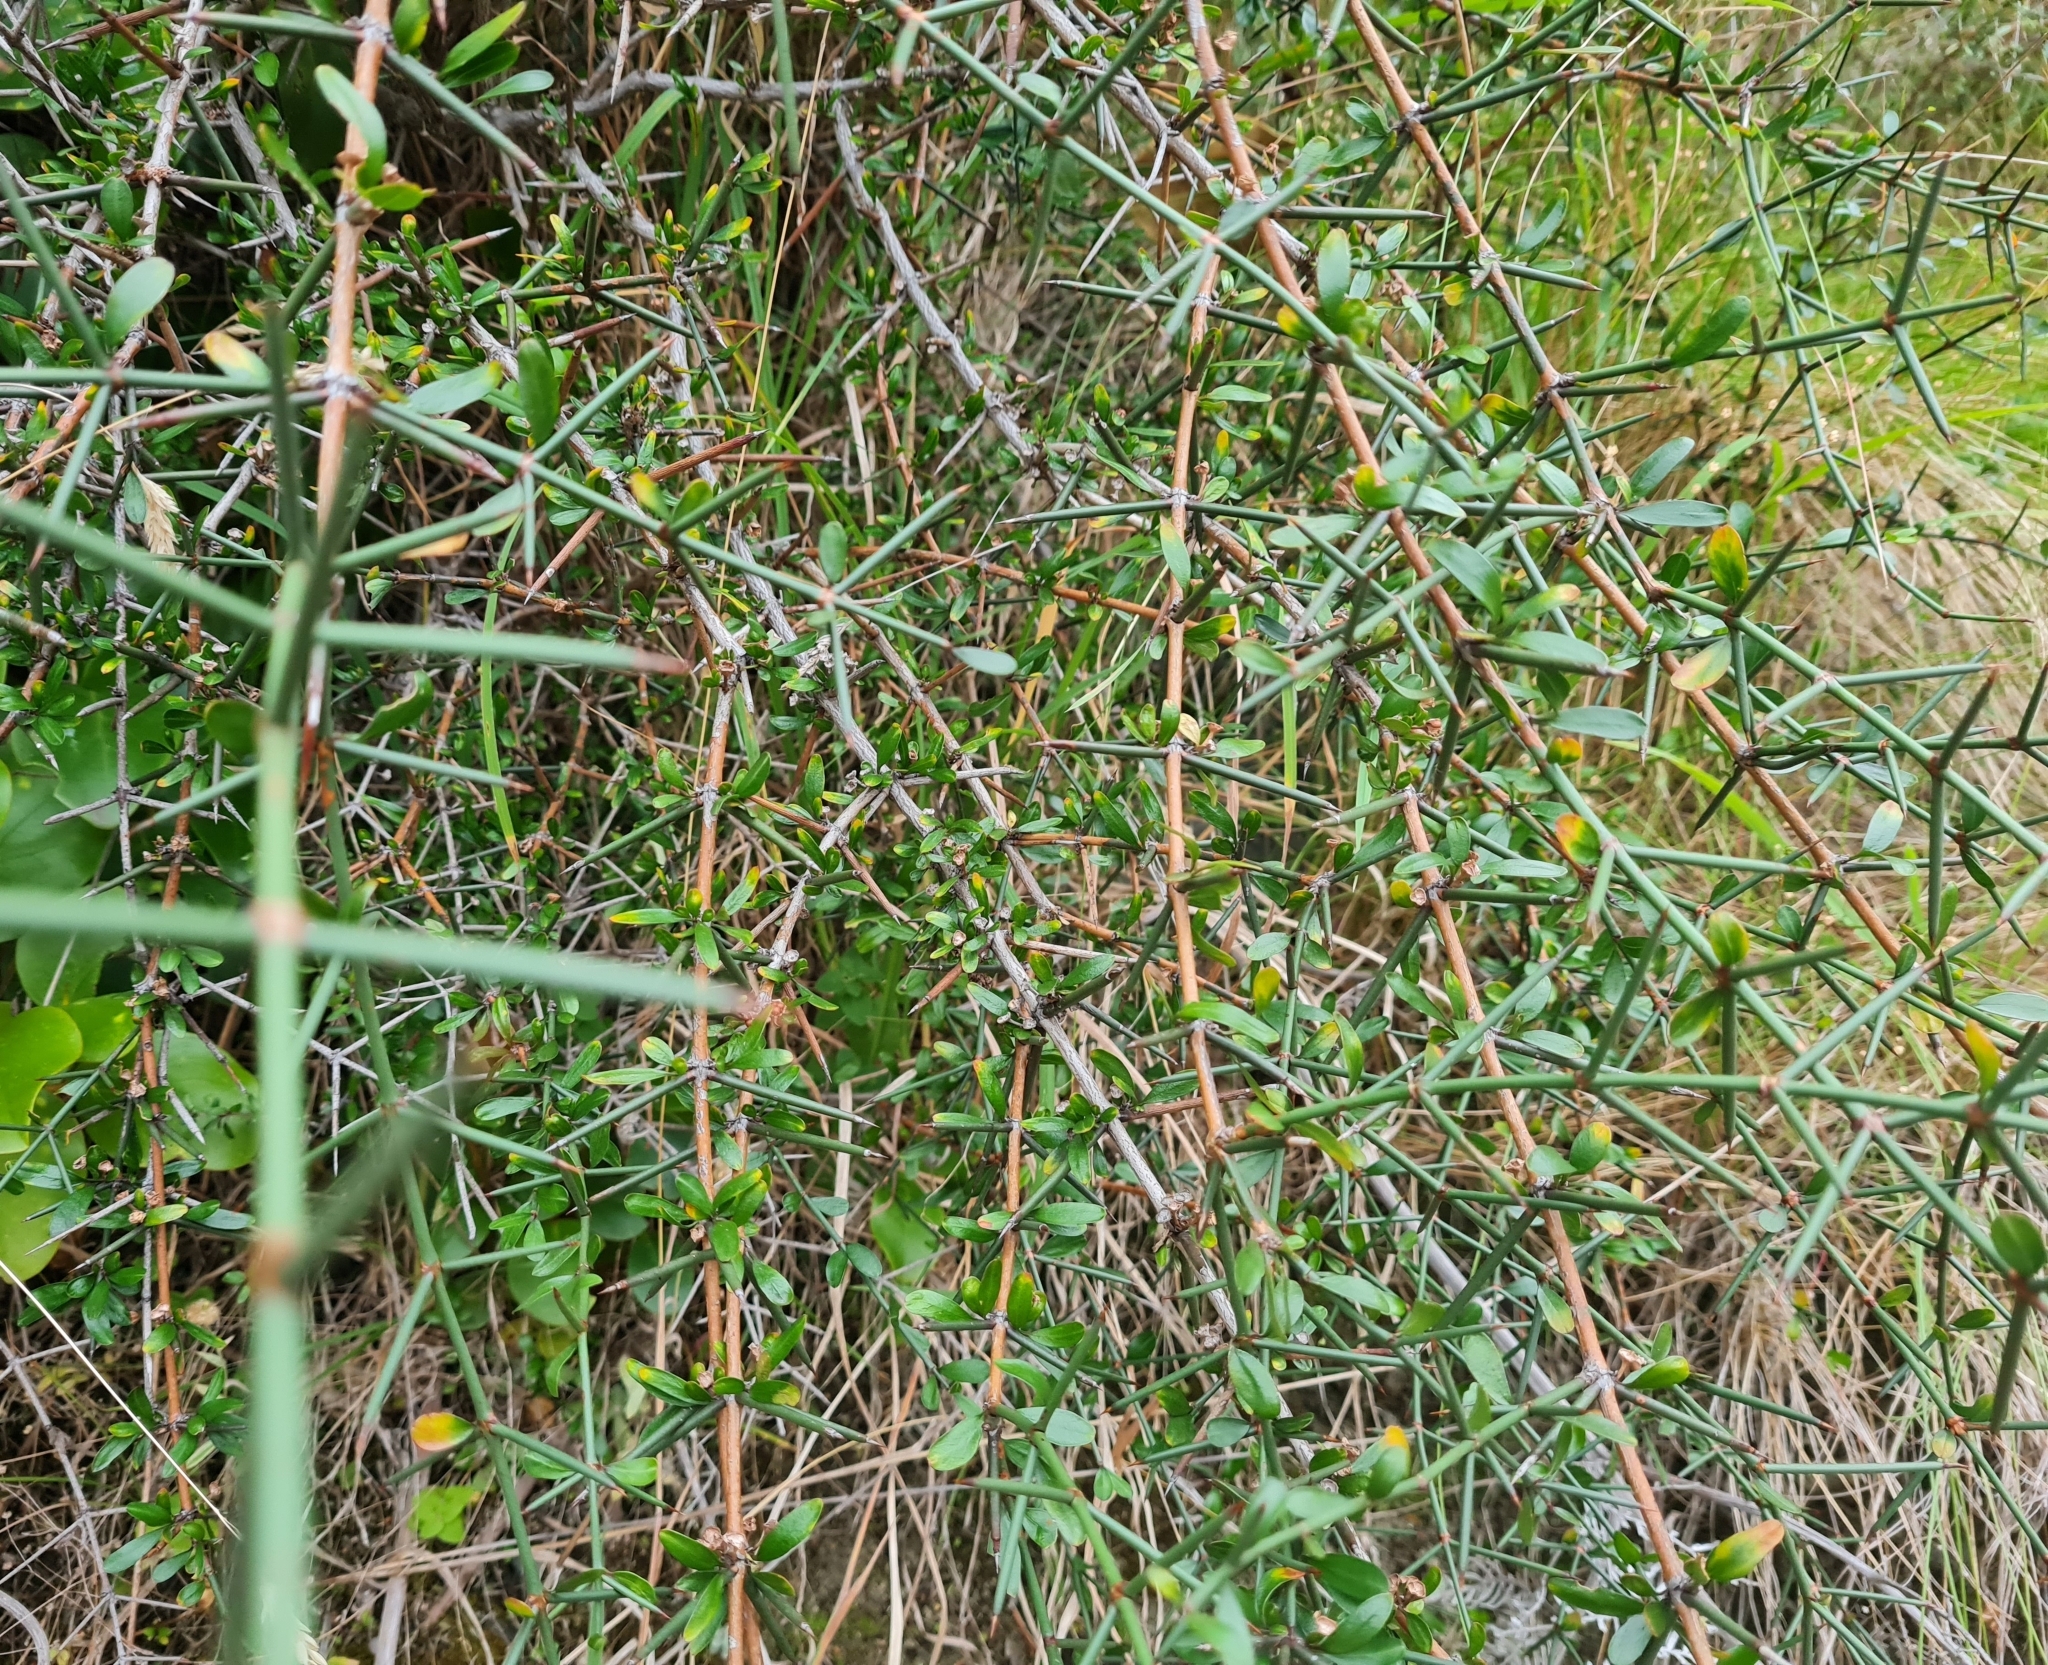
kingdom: Plantae
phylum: Tracheophyta
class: Magnoliopsida
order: Rosales
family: Rhamnaceae
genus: Discaria
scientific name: Discaria toumatou
